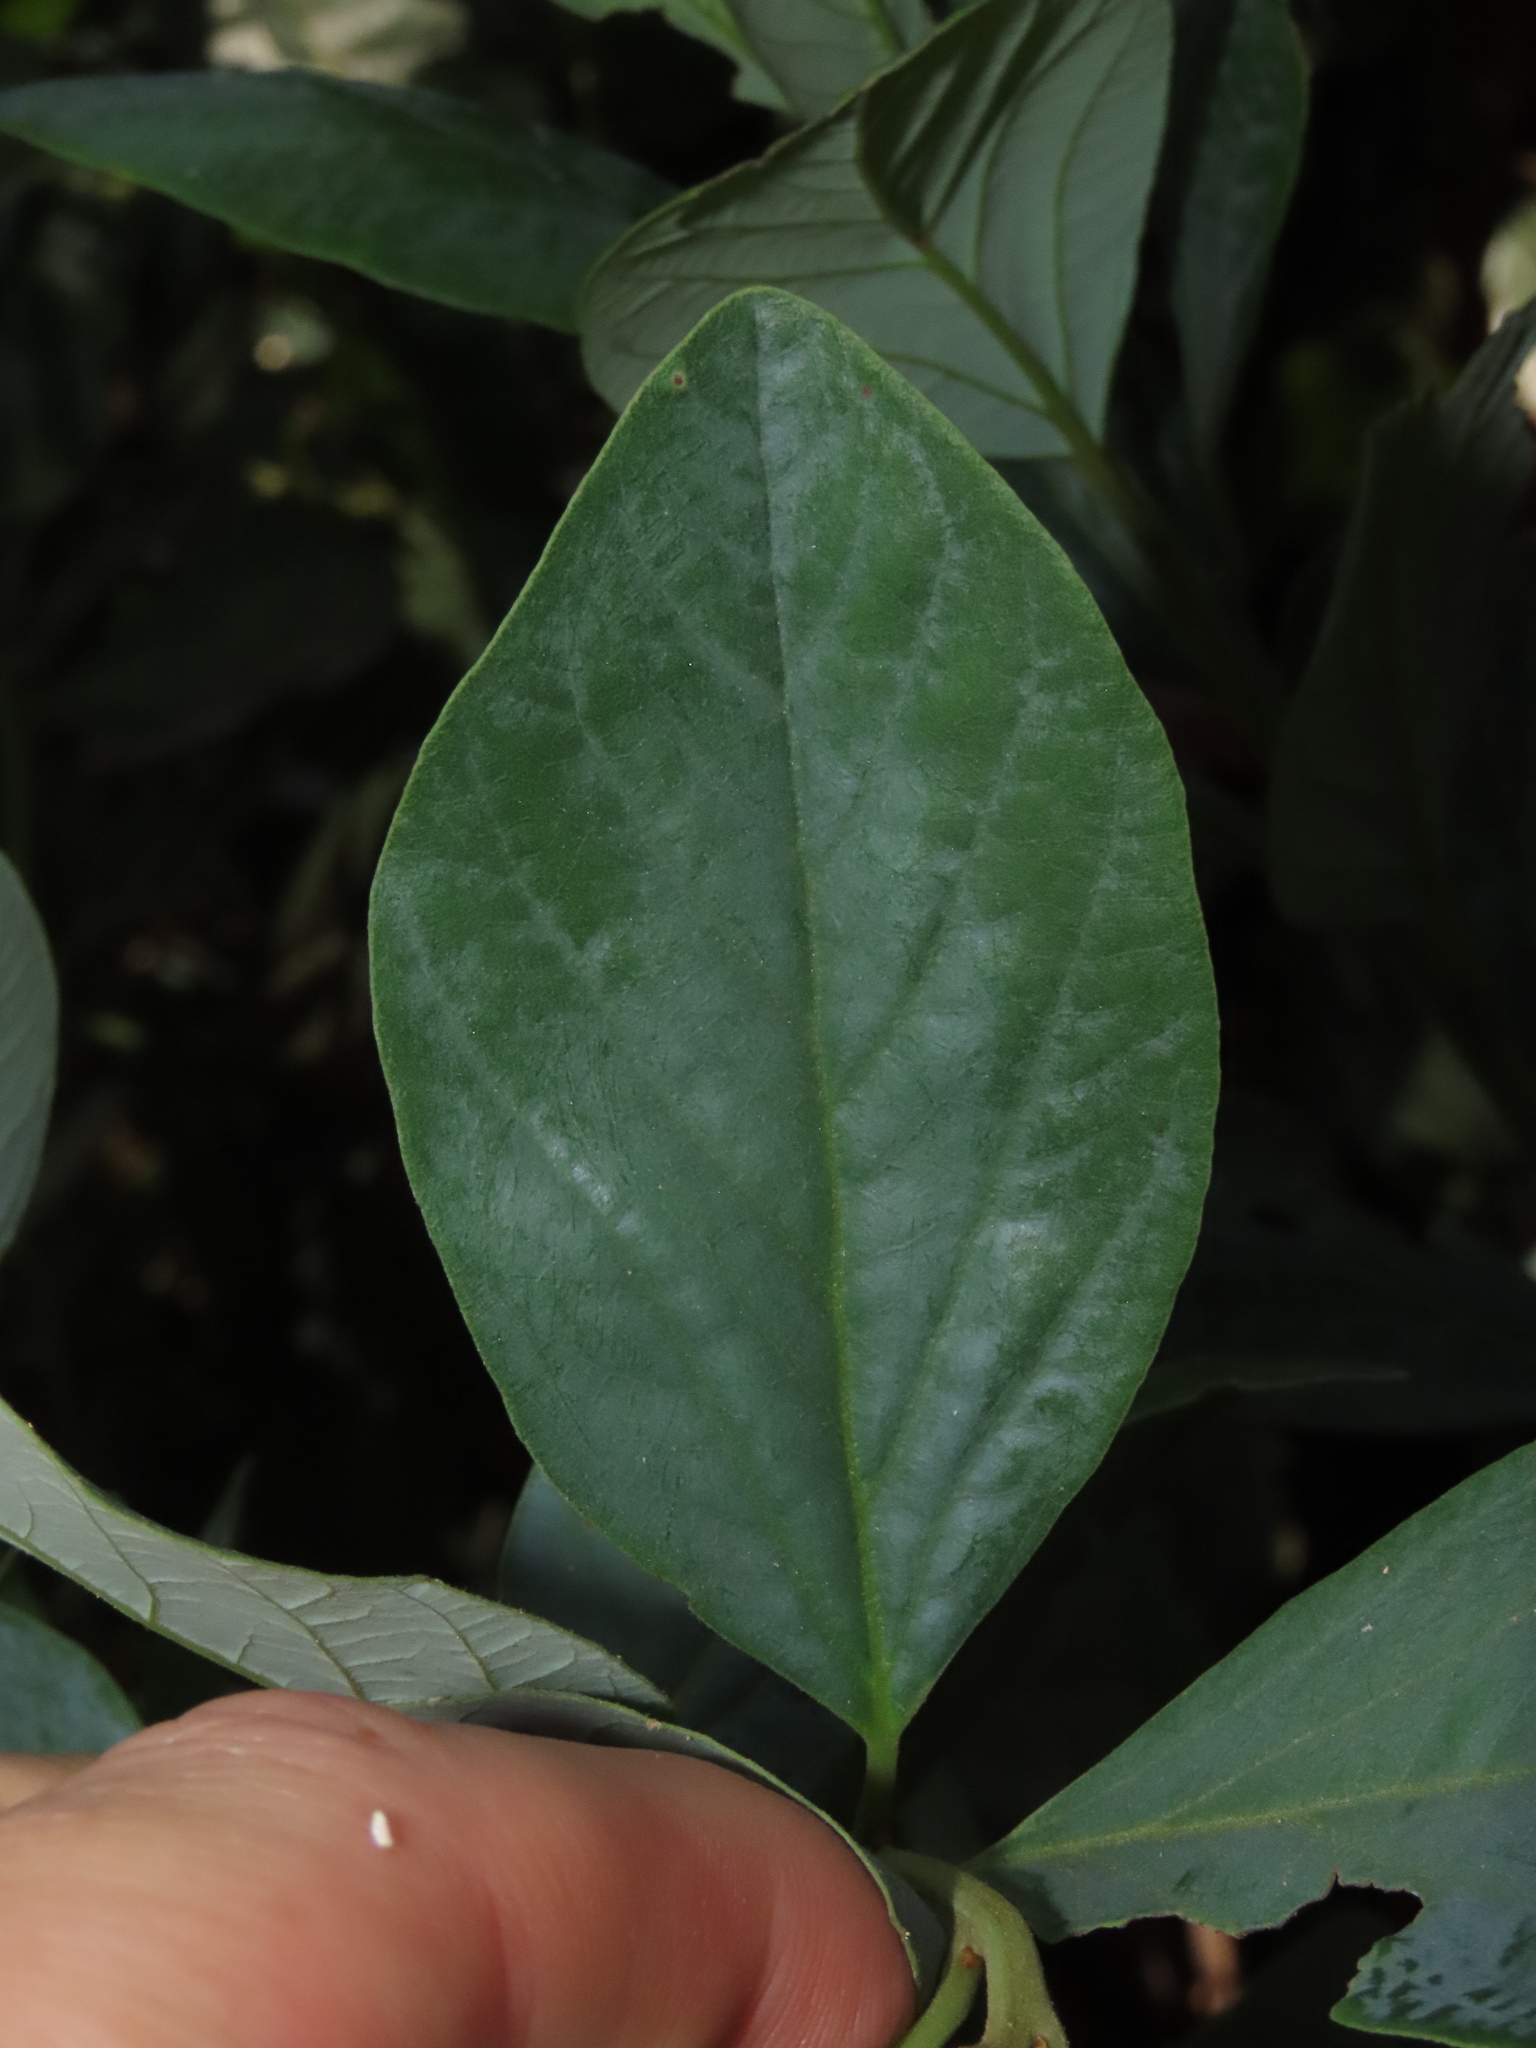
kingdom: Plantae
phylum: Tracheophyta
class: Magnoliopsida
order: Laurales
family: Lauraceae
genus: Persea
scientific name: Persea lingue
